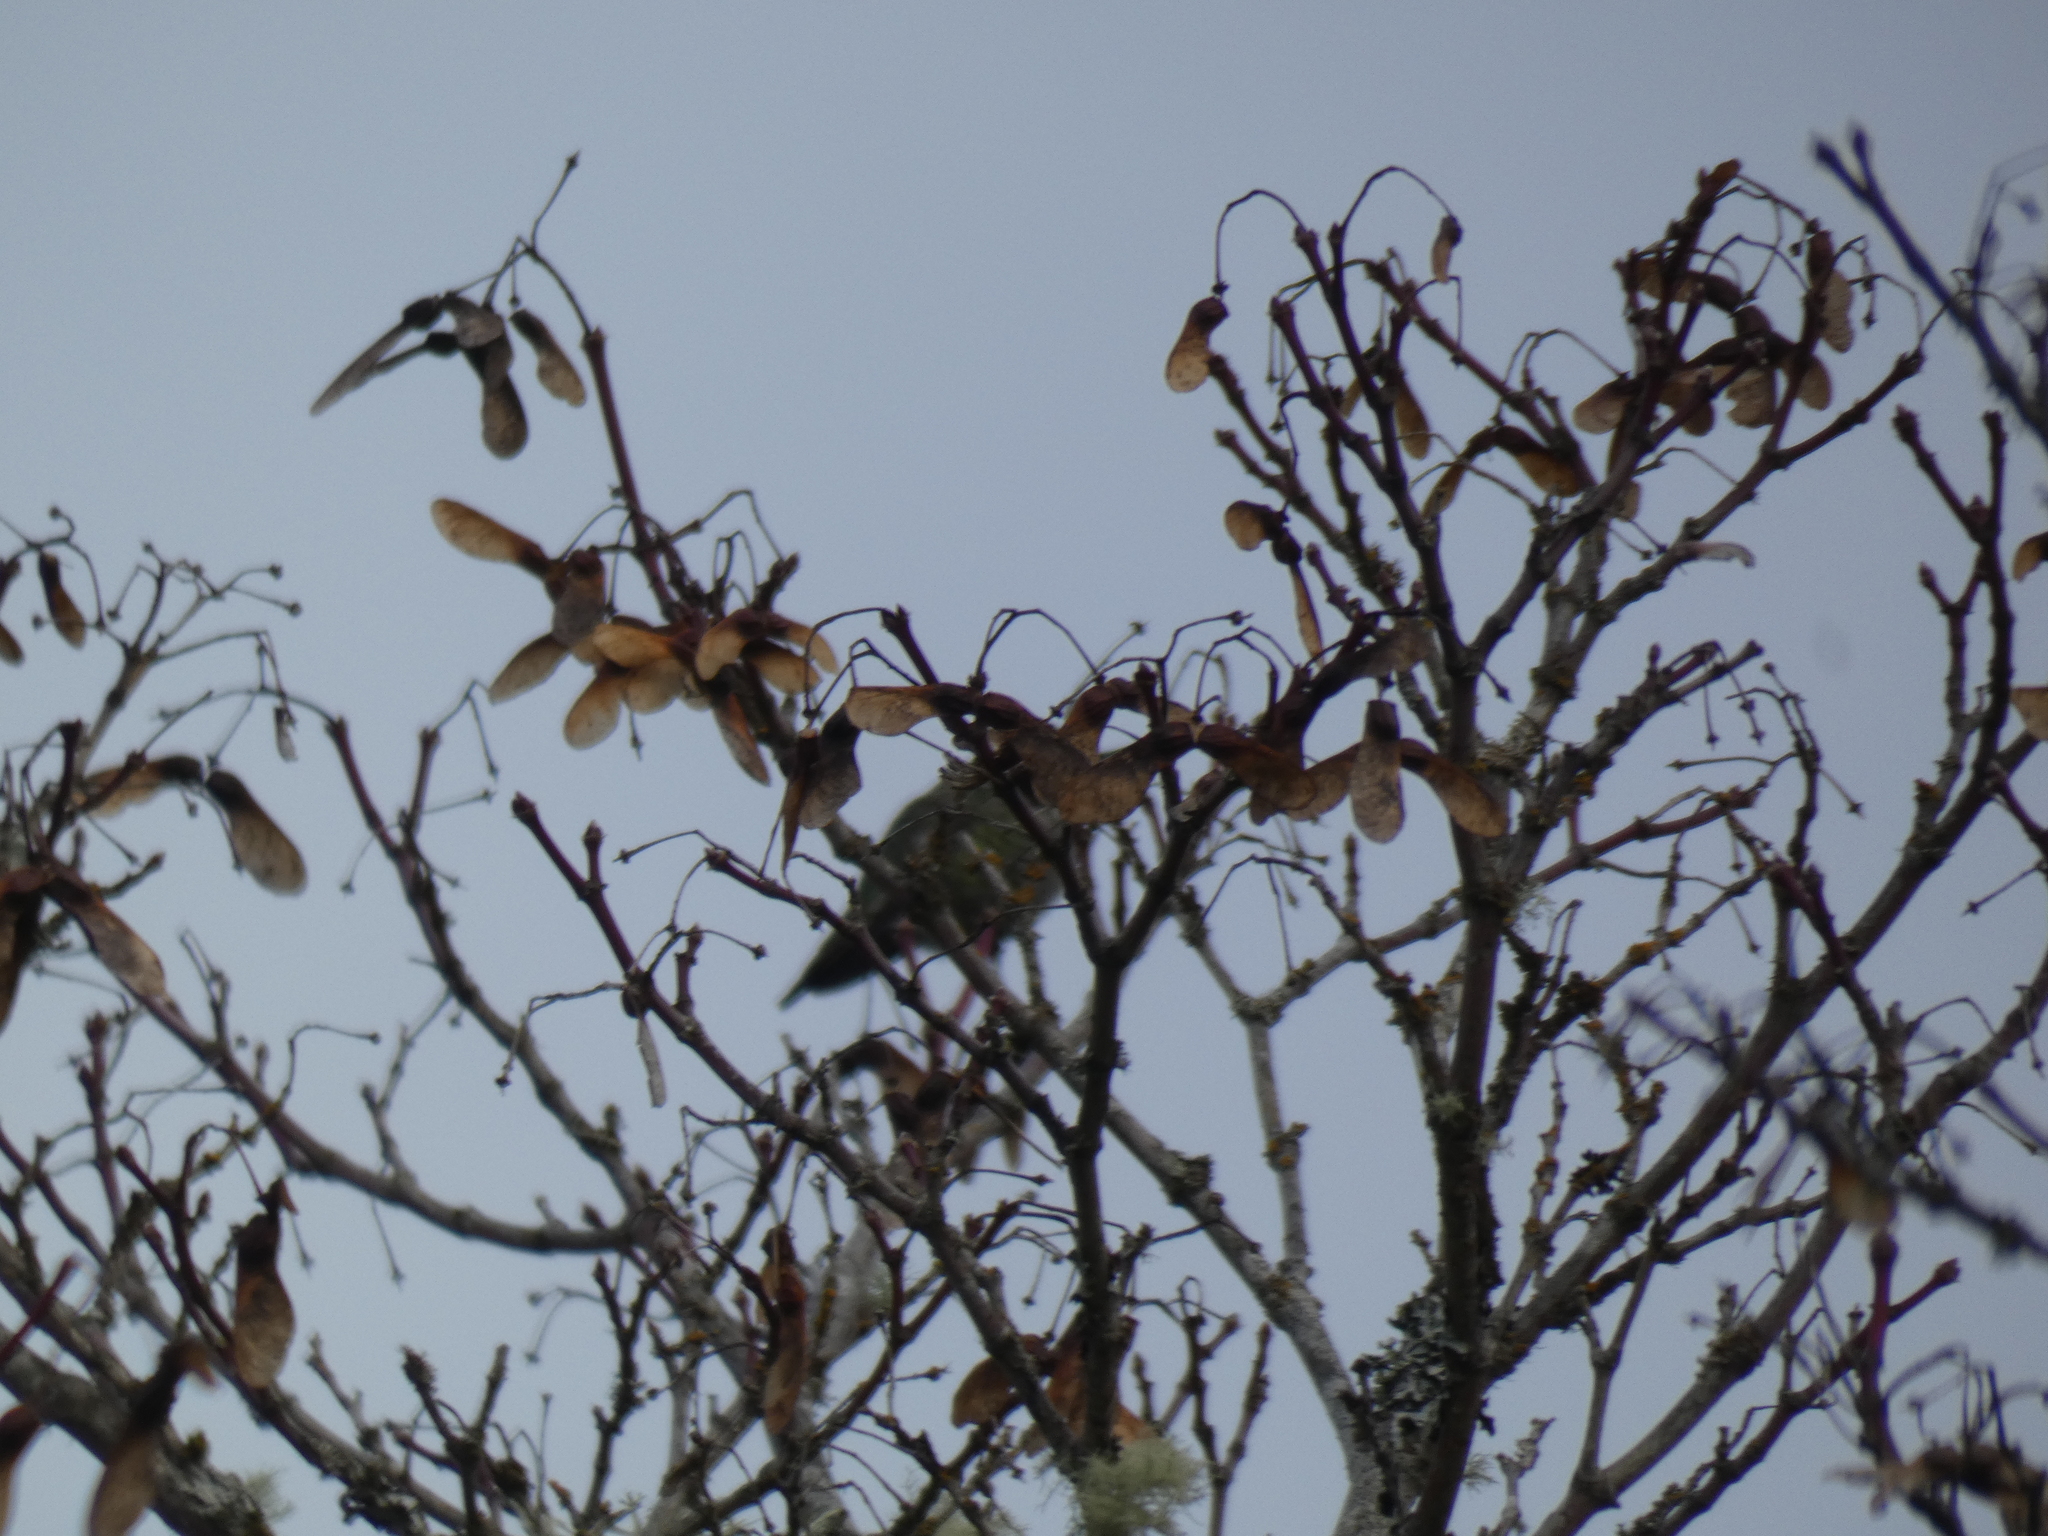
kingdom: Animalia
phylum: Chordata
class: Aves
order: Apodiformes
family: Trochilidae
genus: Calypte
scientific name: Calypte anna
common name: Anna's hummingbird
